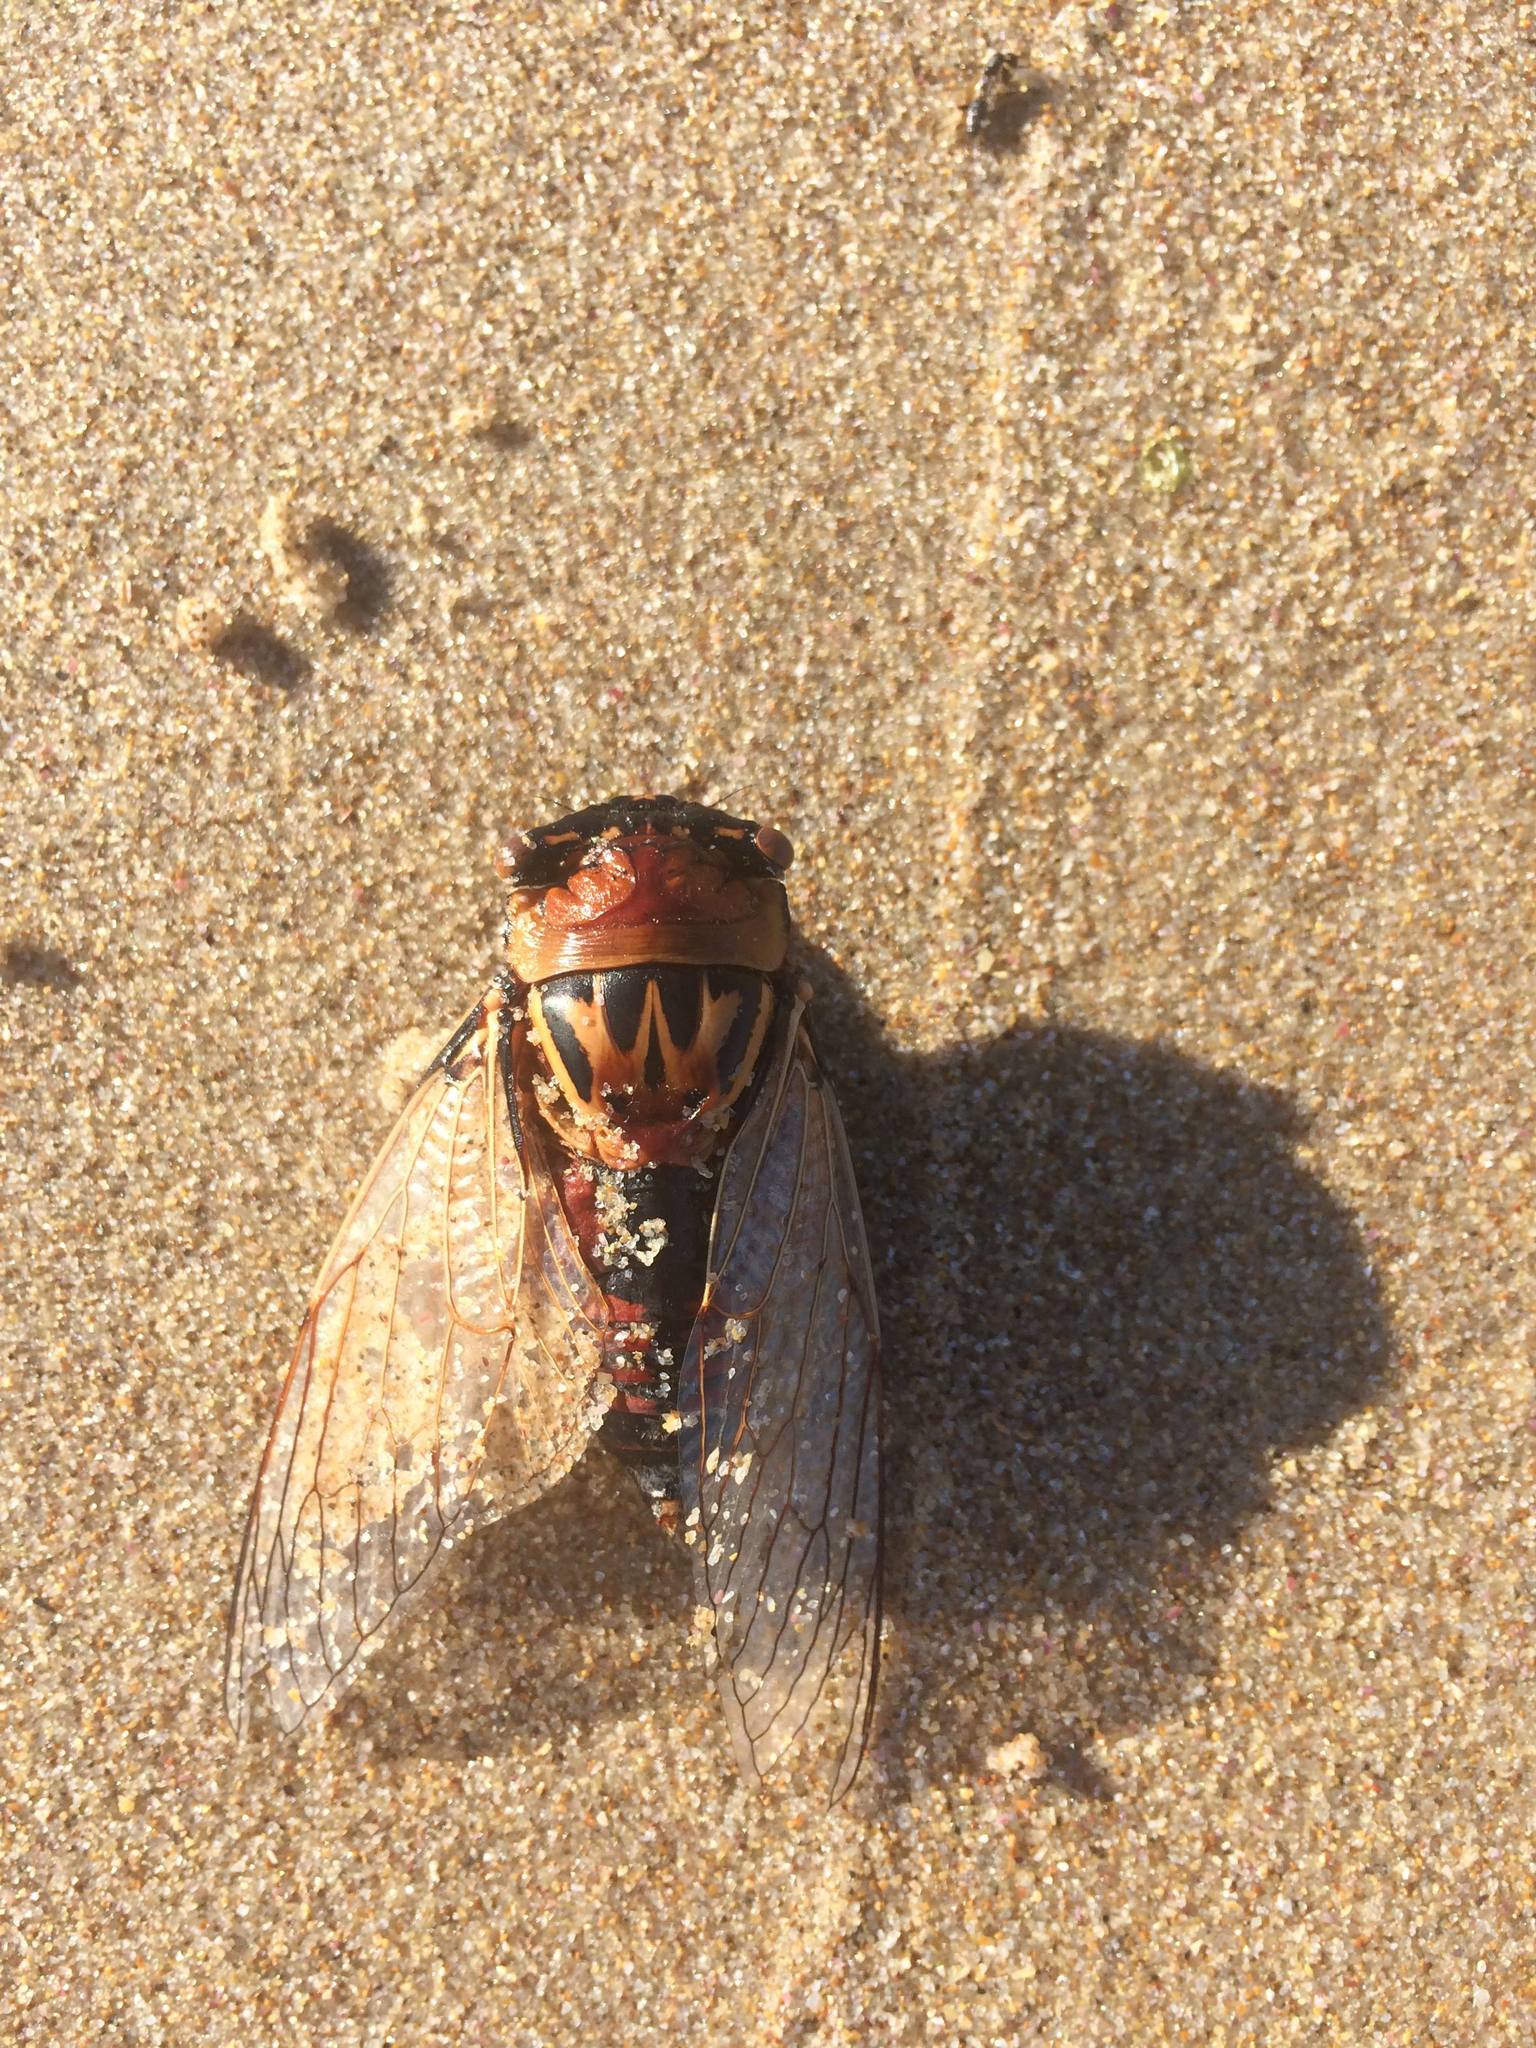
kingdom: Animalia
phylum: Arthropoda
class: Insecta
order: Hemiptera
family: Cicadidae
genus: Thopha
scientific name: Thopha saccata
